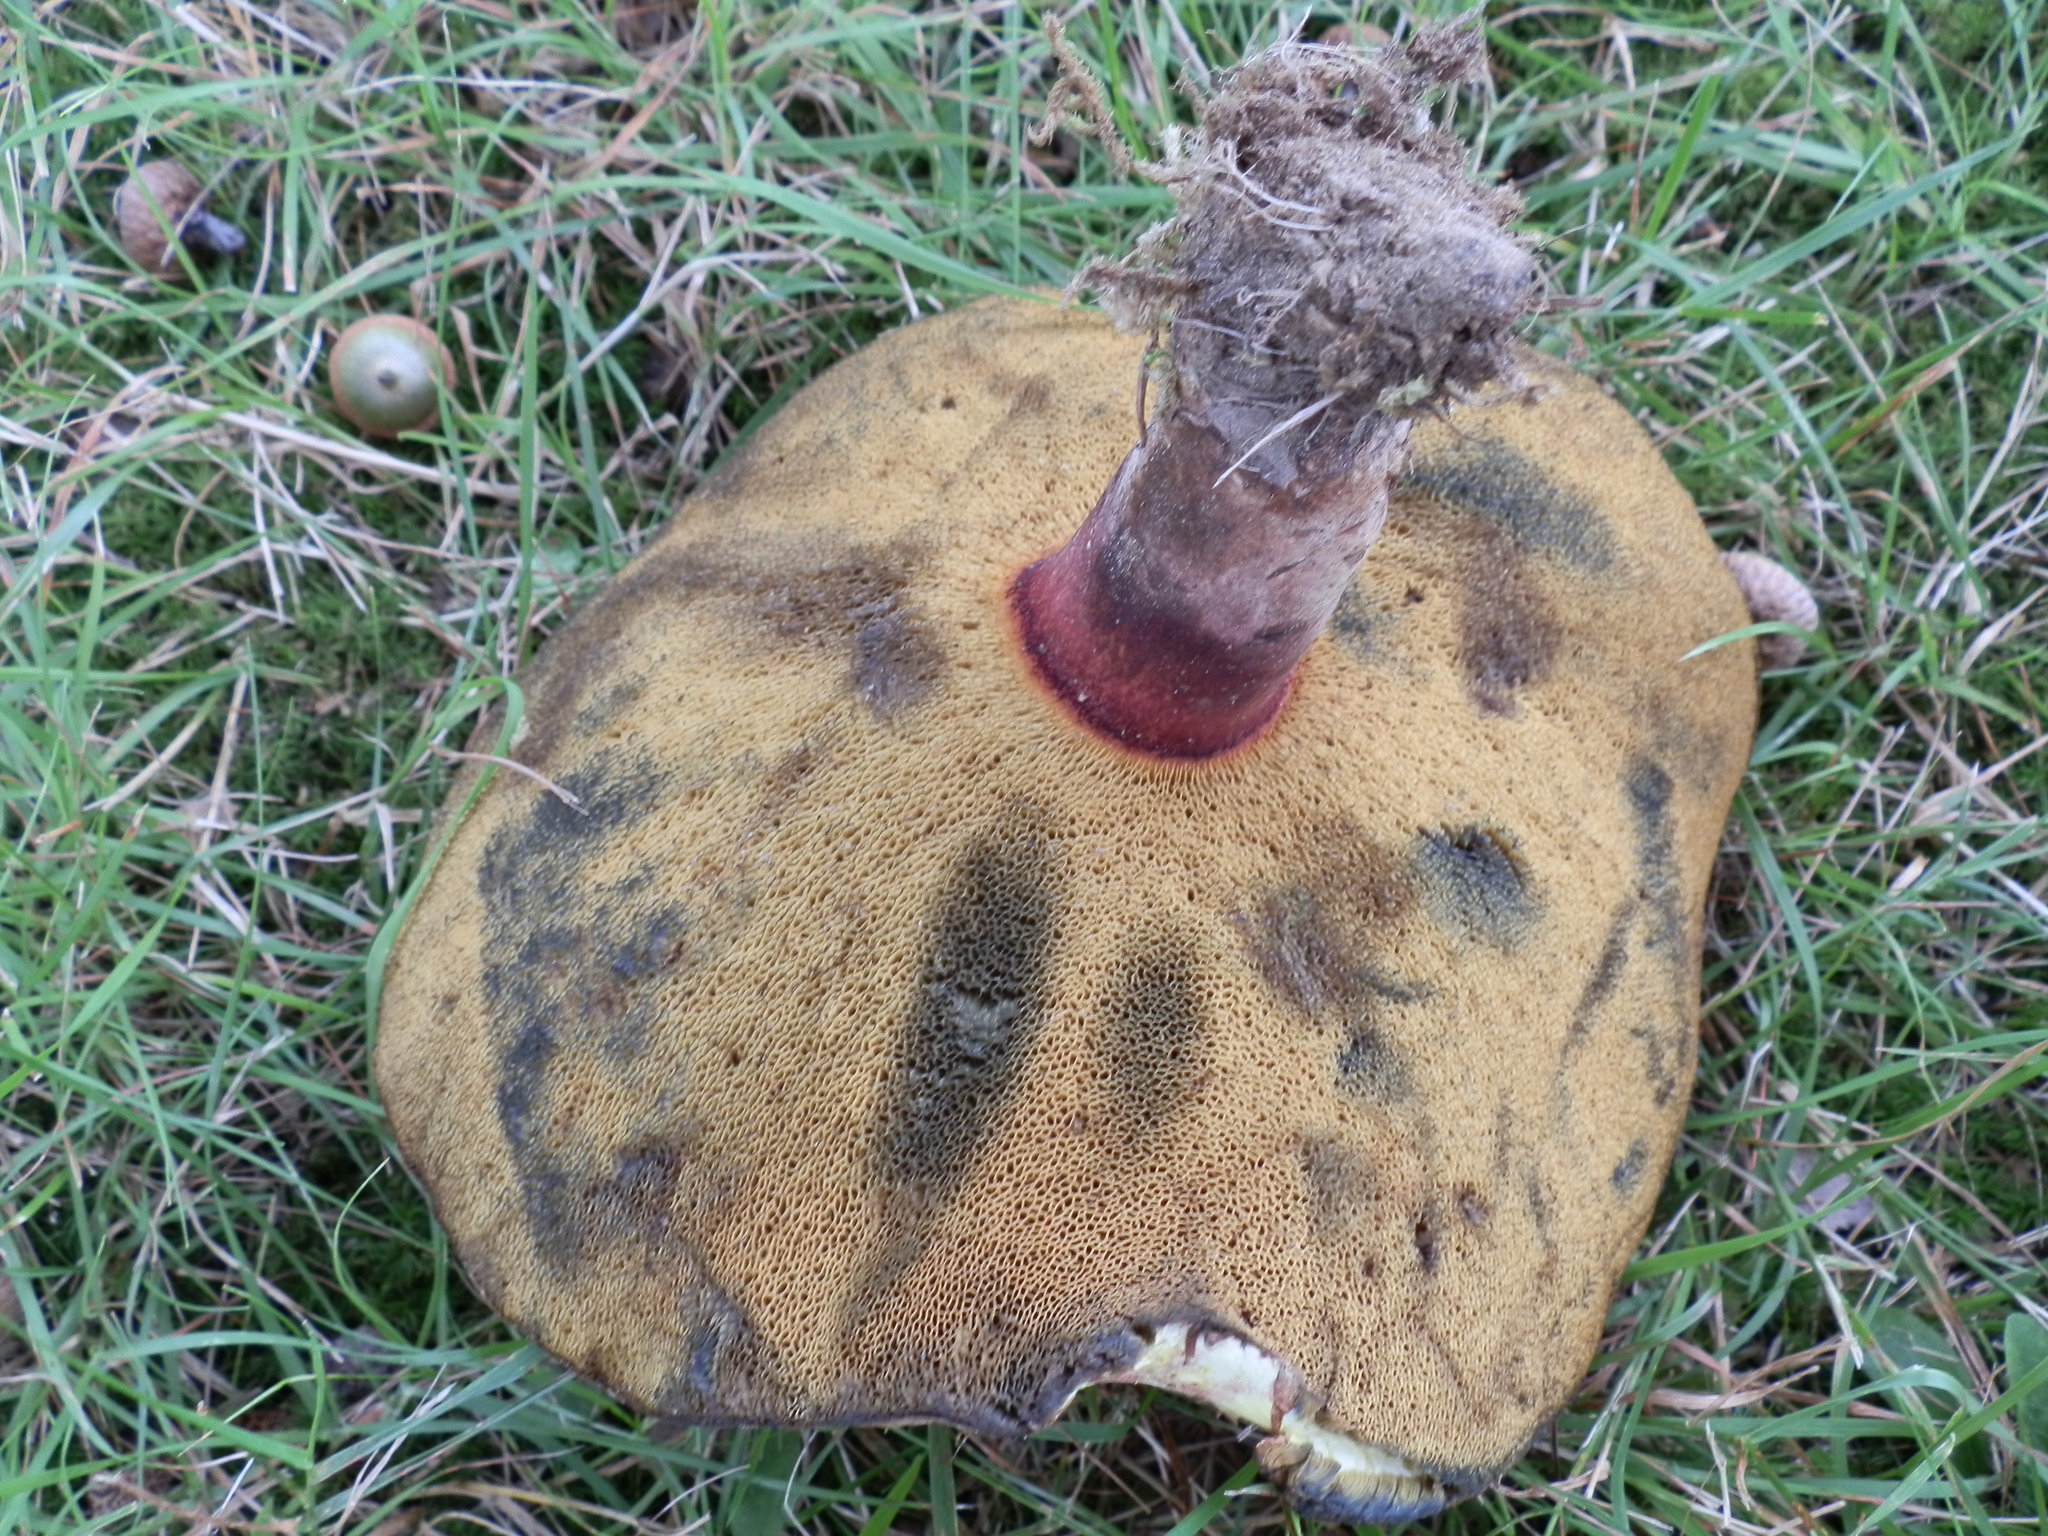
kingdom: Fungi
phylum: Basidiomycota
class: Agaricomycetes
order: Boletales
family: Boletaceae
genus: Baorangia
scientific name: Baorangia bicolor
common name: Two-colored bolete
